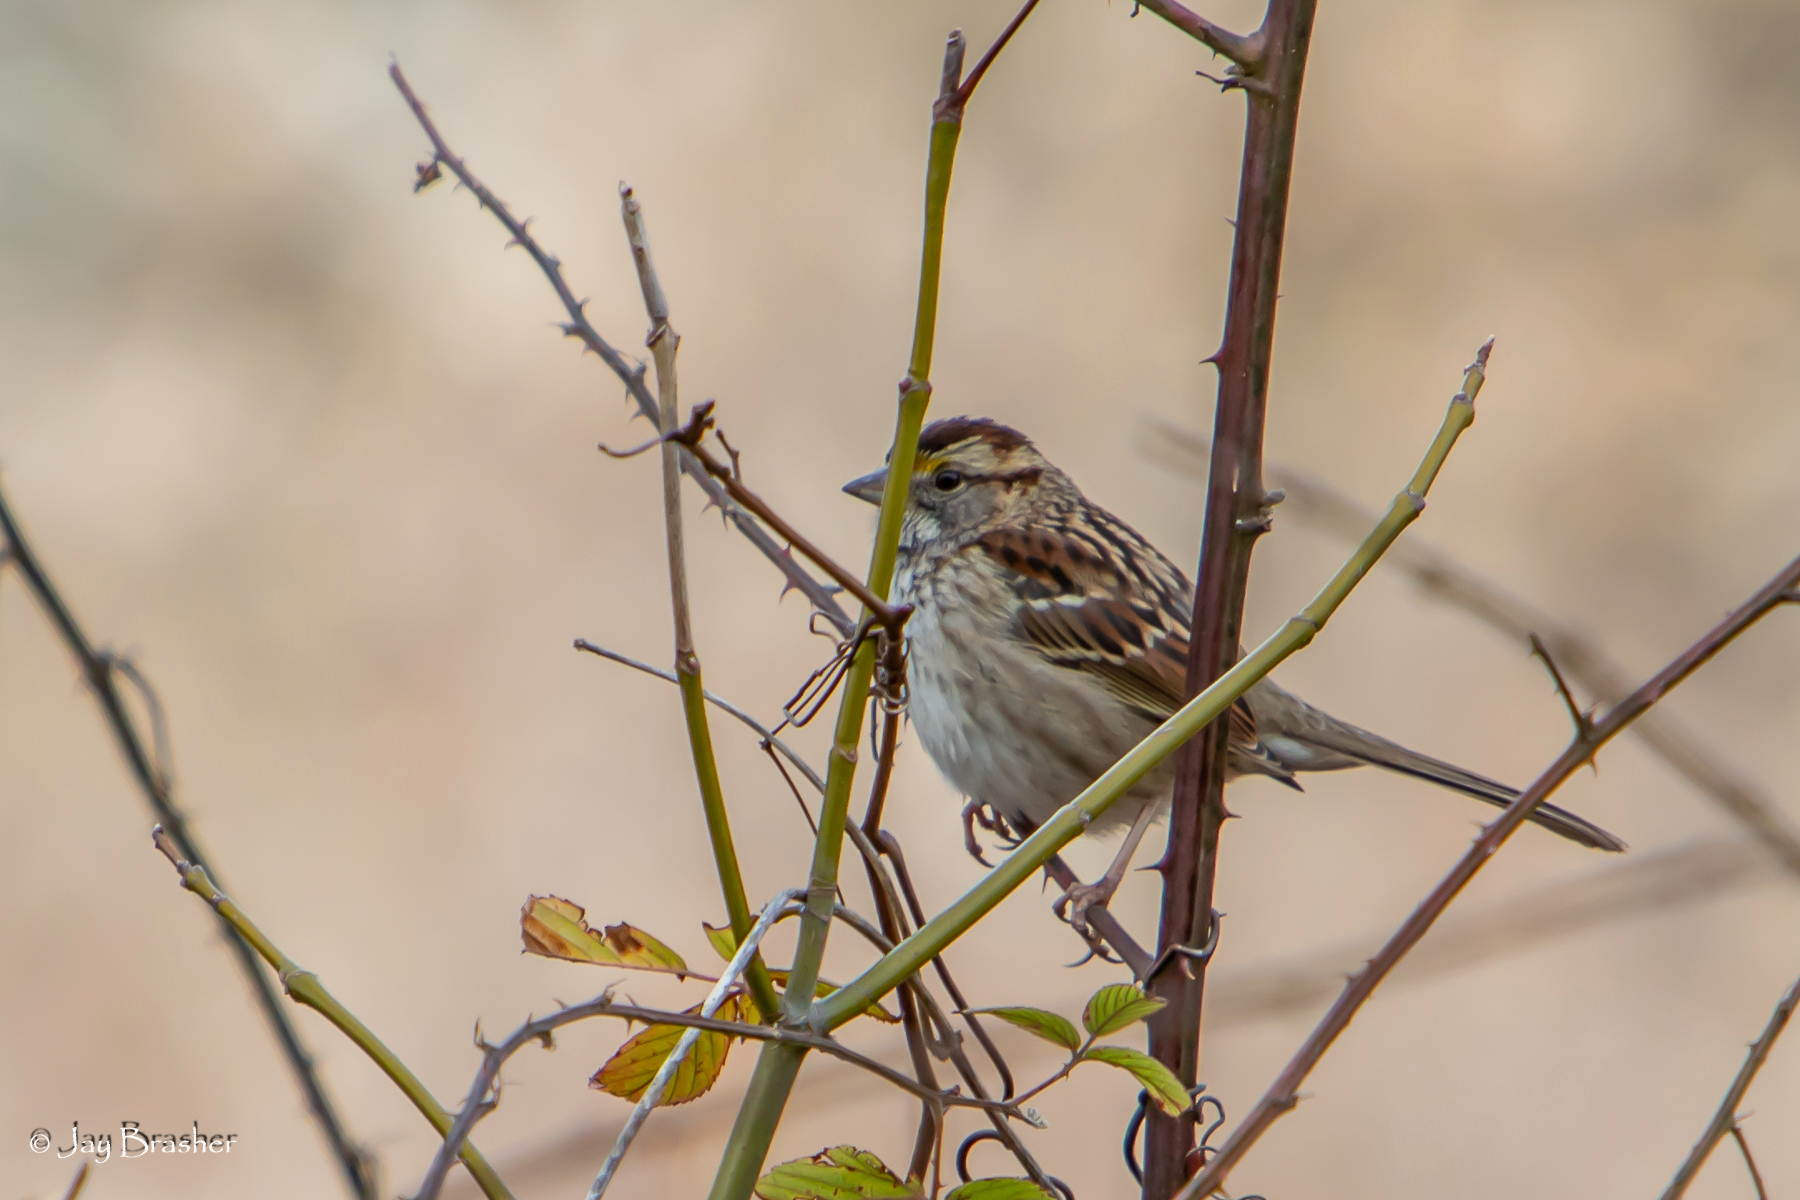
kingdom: Animalia
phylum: Chordata
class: Aves
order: Passeriformes
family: Passerellidae
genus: Zonotrichia
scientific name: Zonotrichia albicollis
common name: White-throated sparrow
